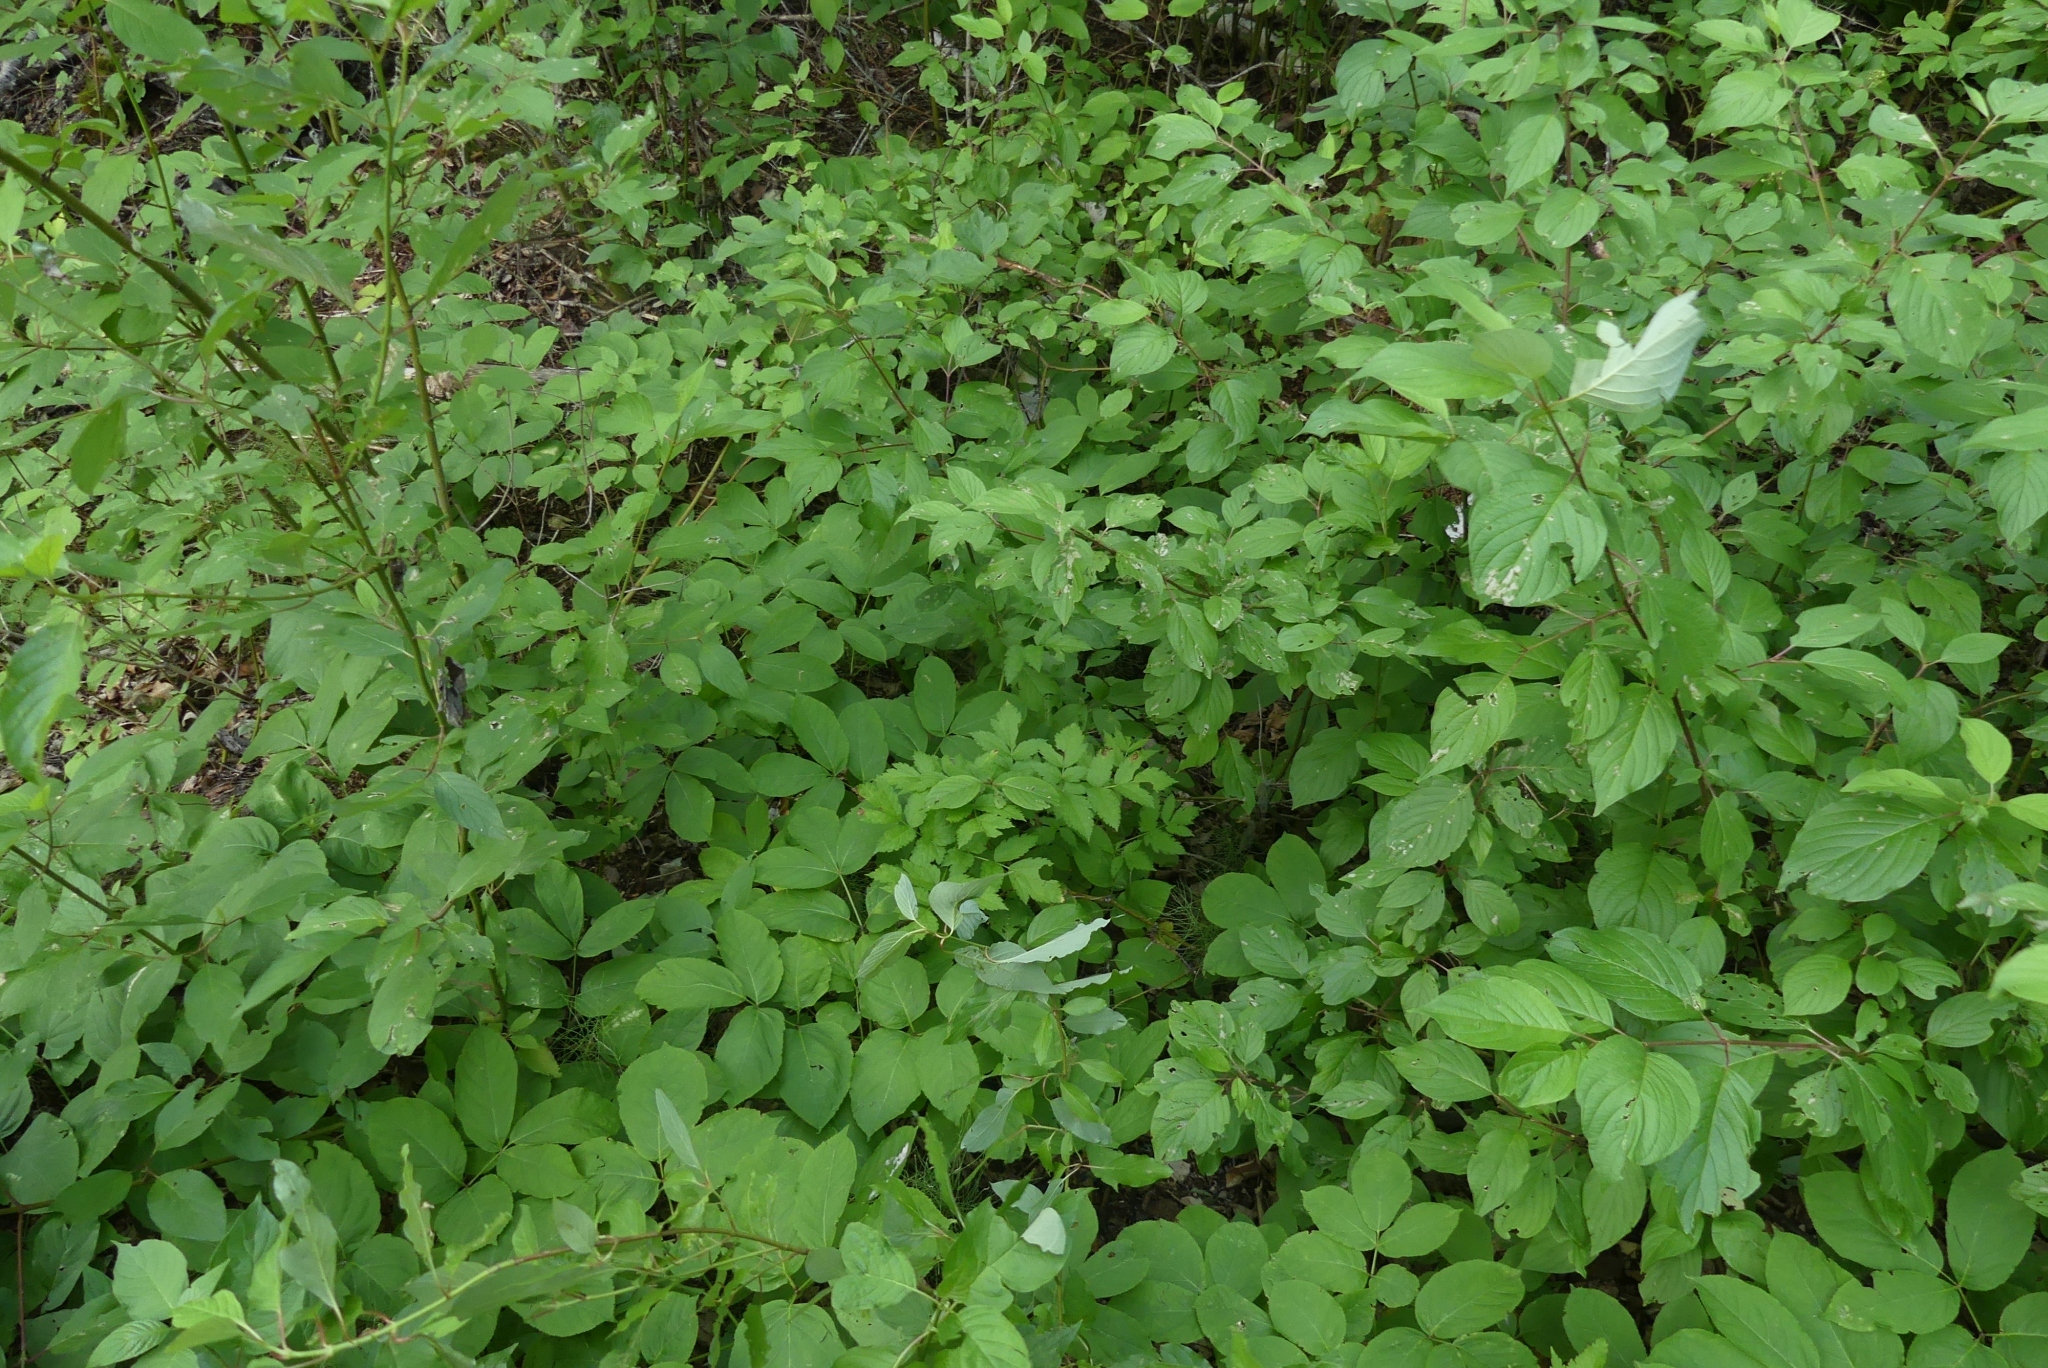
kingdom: Plantae
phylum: Tracheophyta
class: Magnoliopsida
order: Ranunculales
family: Ranunculaceae
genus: Actaea
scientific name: Actaea rubra
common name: Red baneberry
